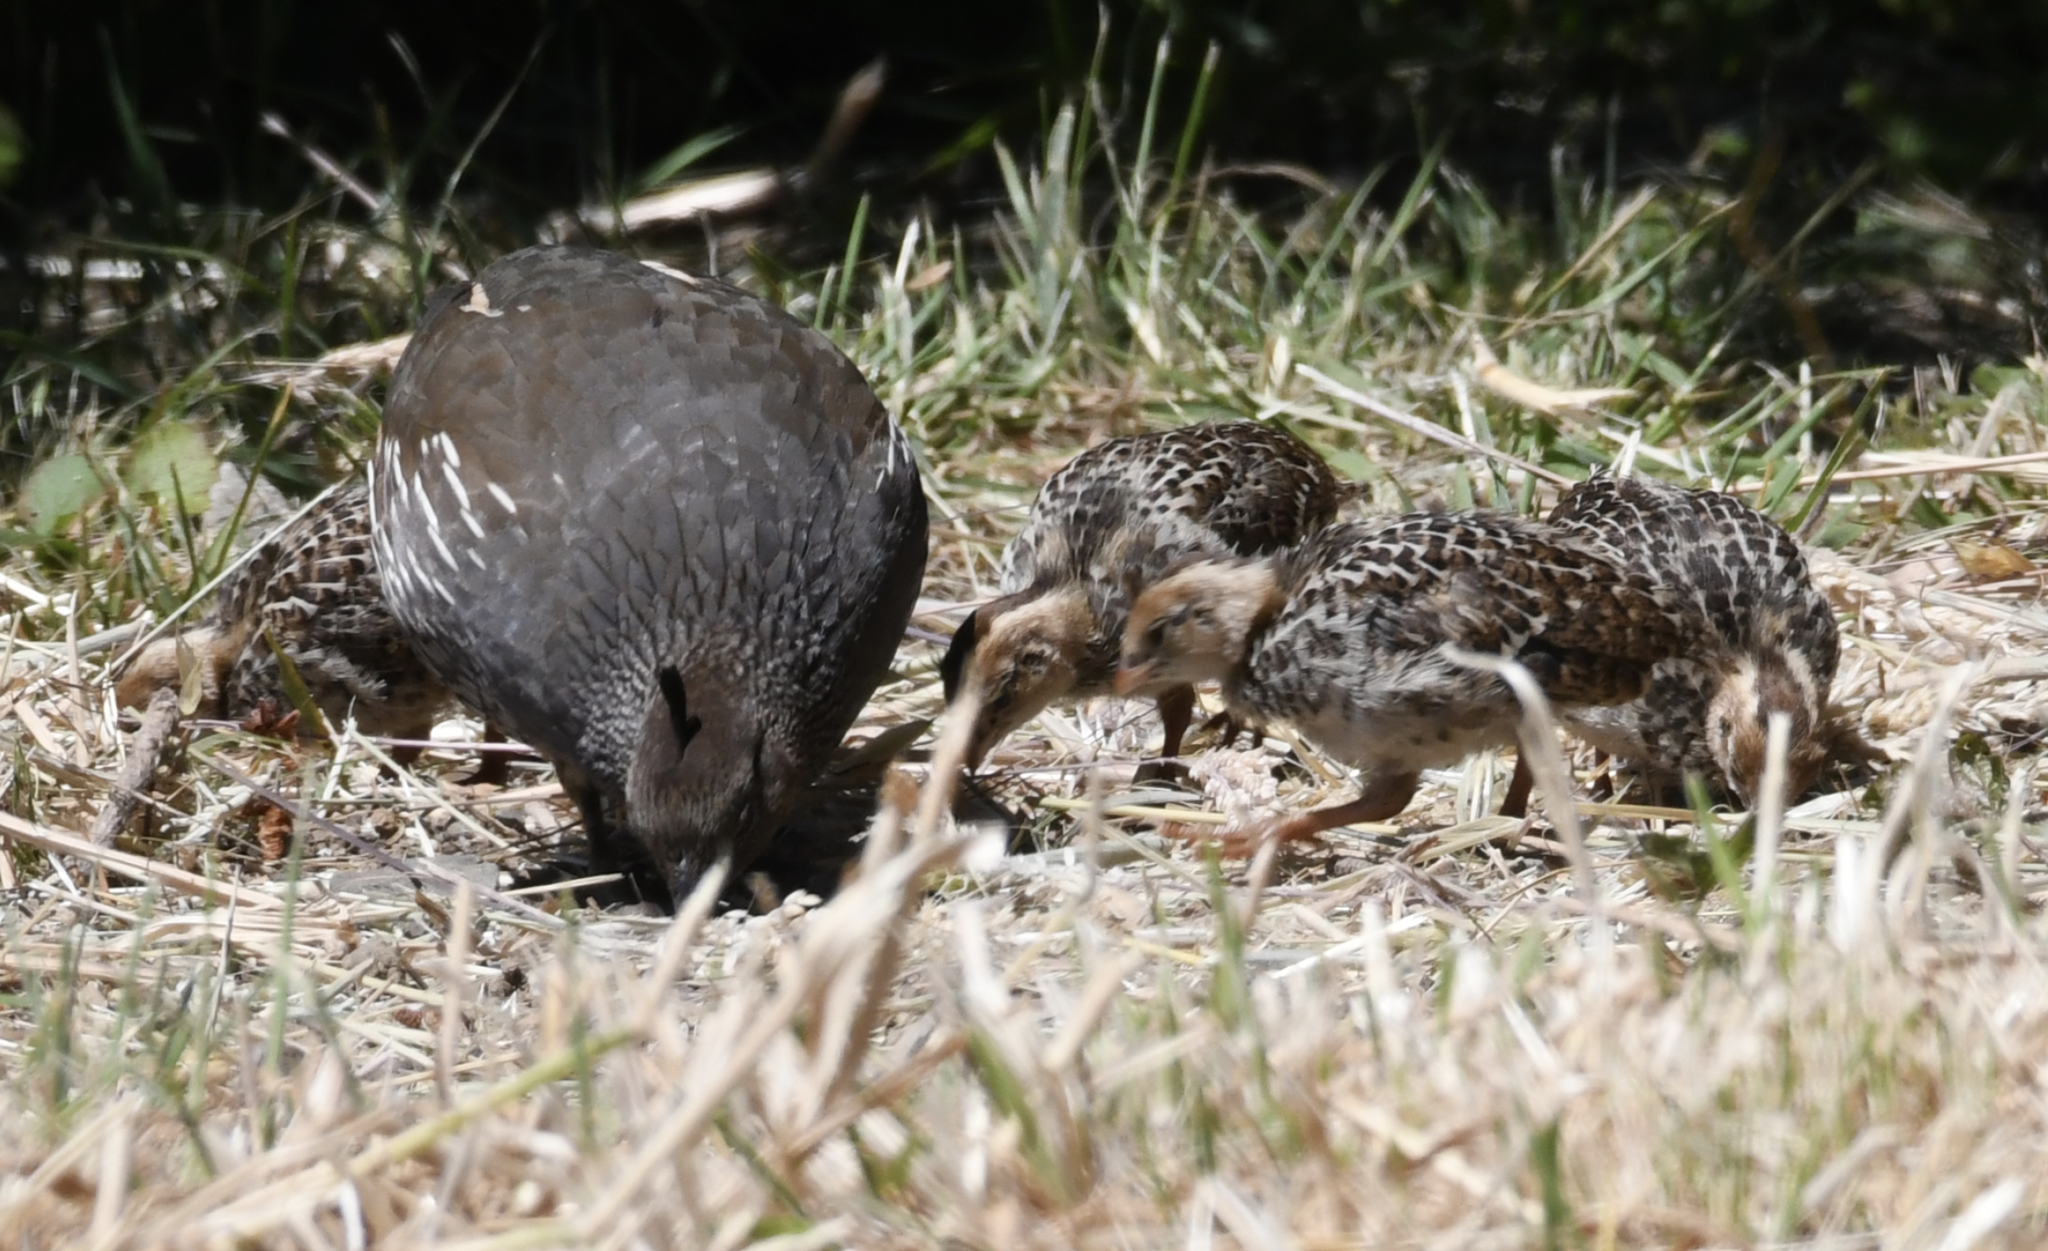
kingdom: Animalia
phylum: Chordata
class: Aves
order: Galliformes
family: Odontophoridae
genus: Callipepla
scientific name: Callipepla californica
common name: California quail
